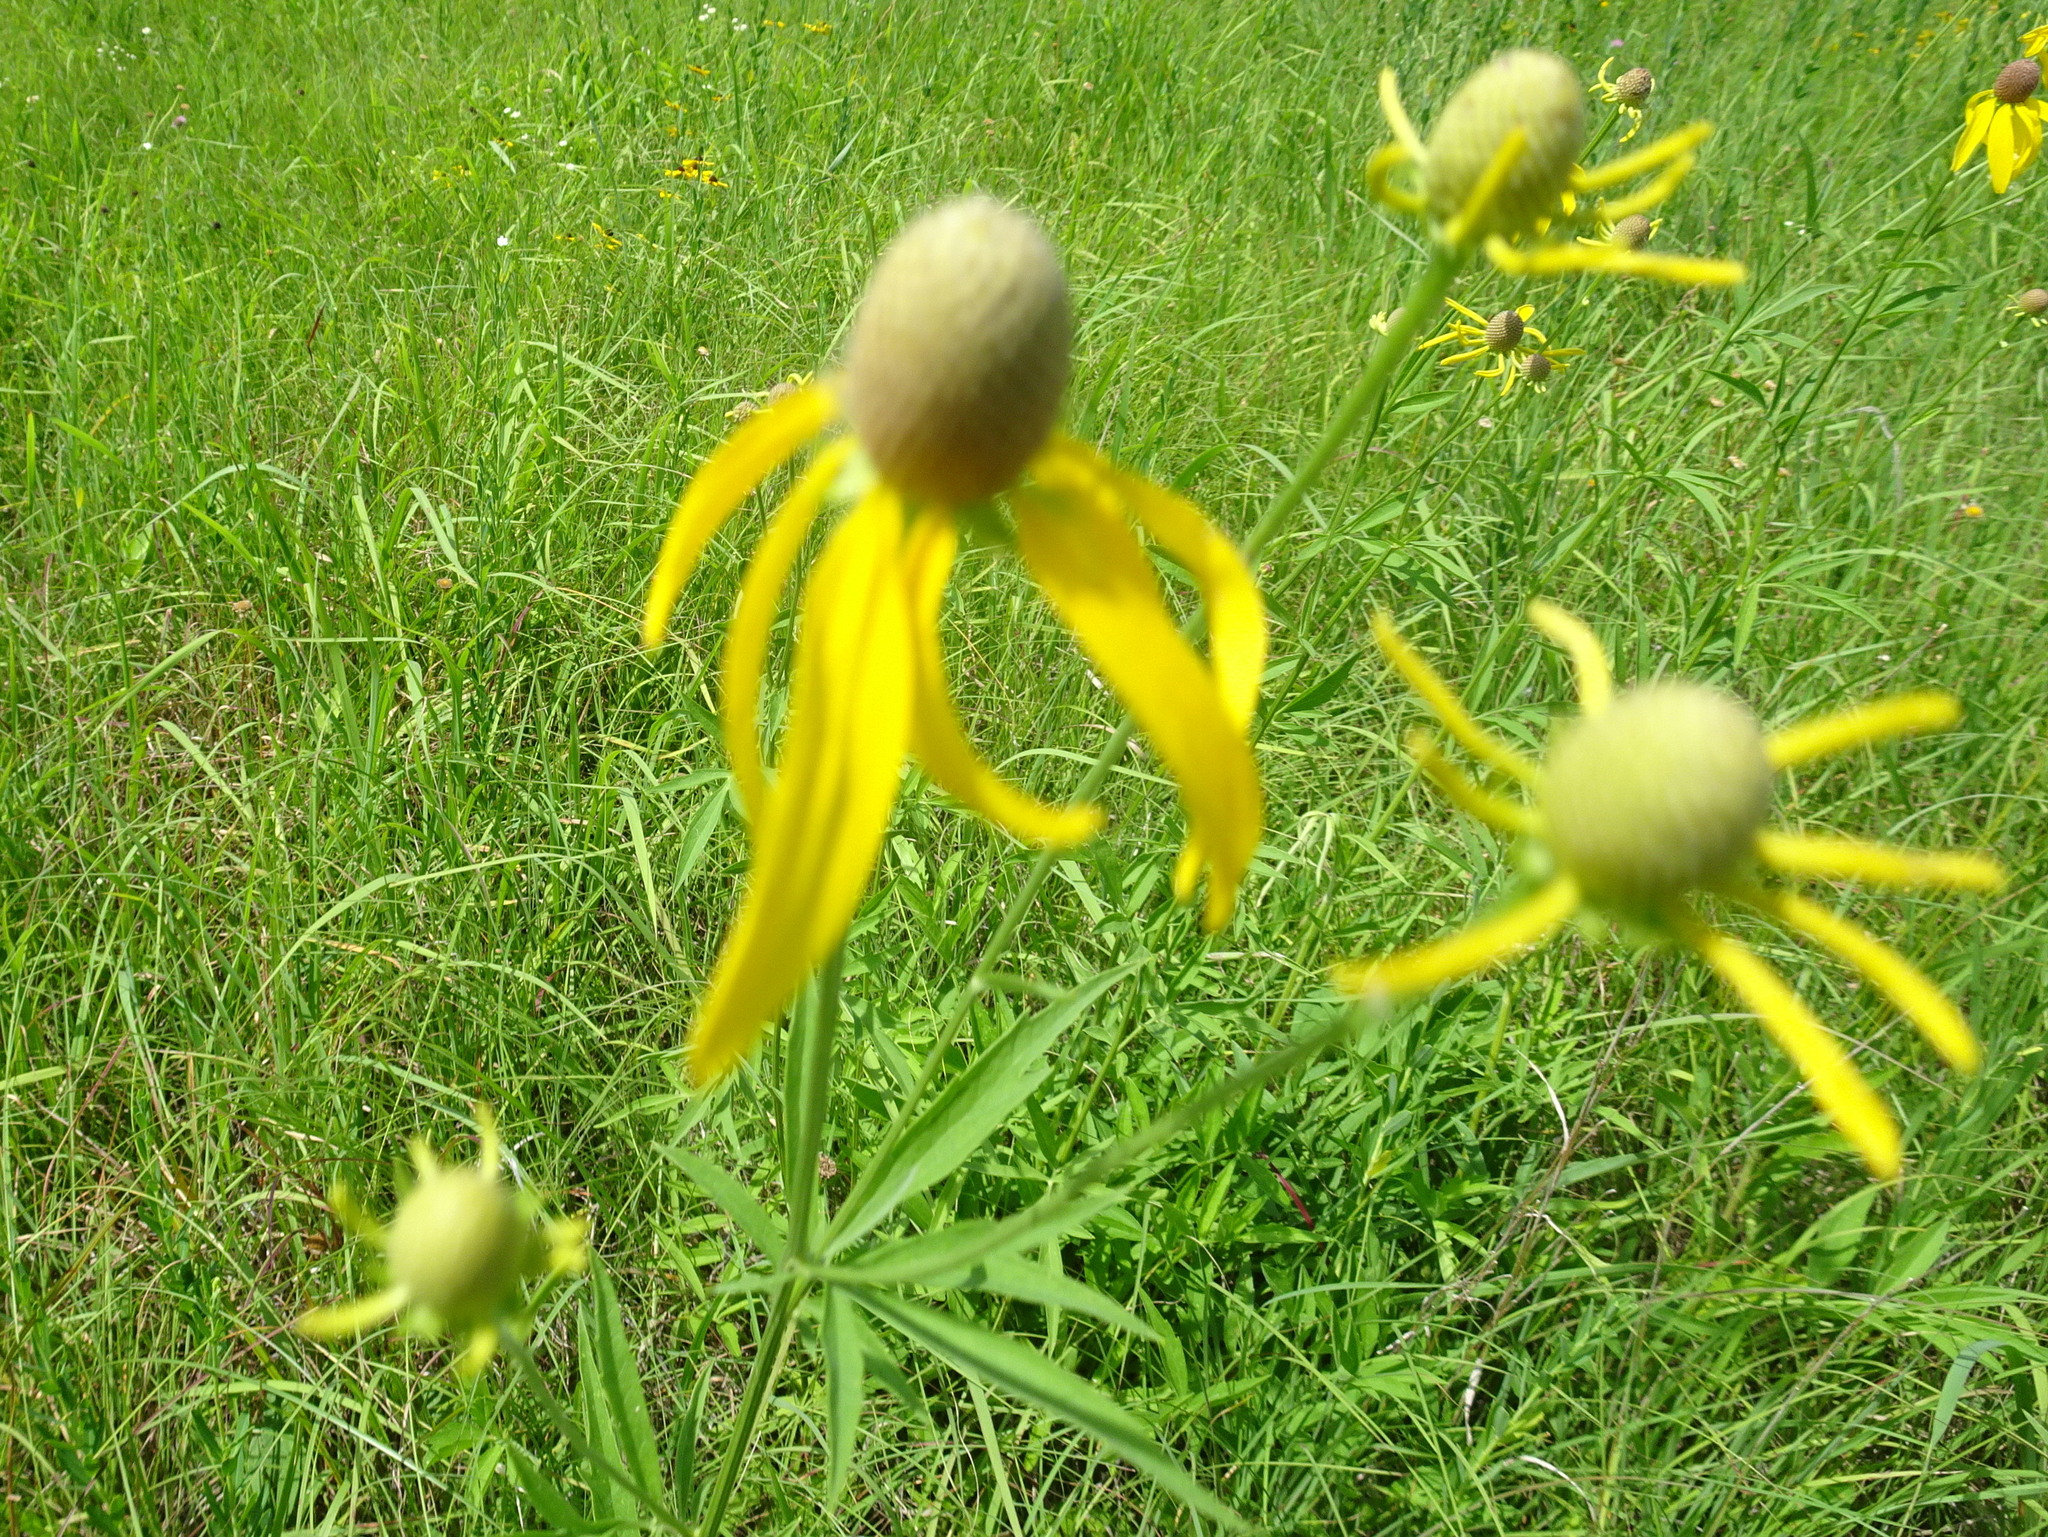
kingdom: Plantae
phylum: Tracheophyta
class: Magnoliopsida
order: Asterales
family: Asteraceae
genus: Ratibida
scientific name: Ratibida pinnata
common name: Drooping prairie-coneflower
